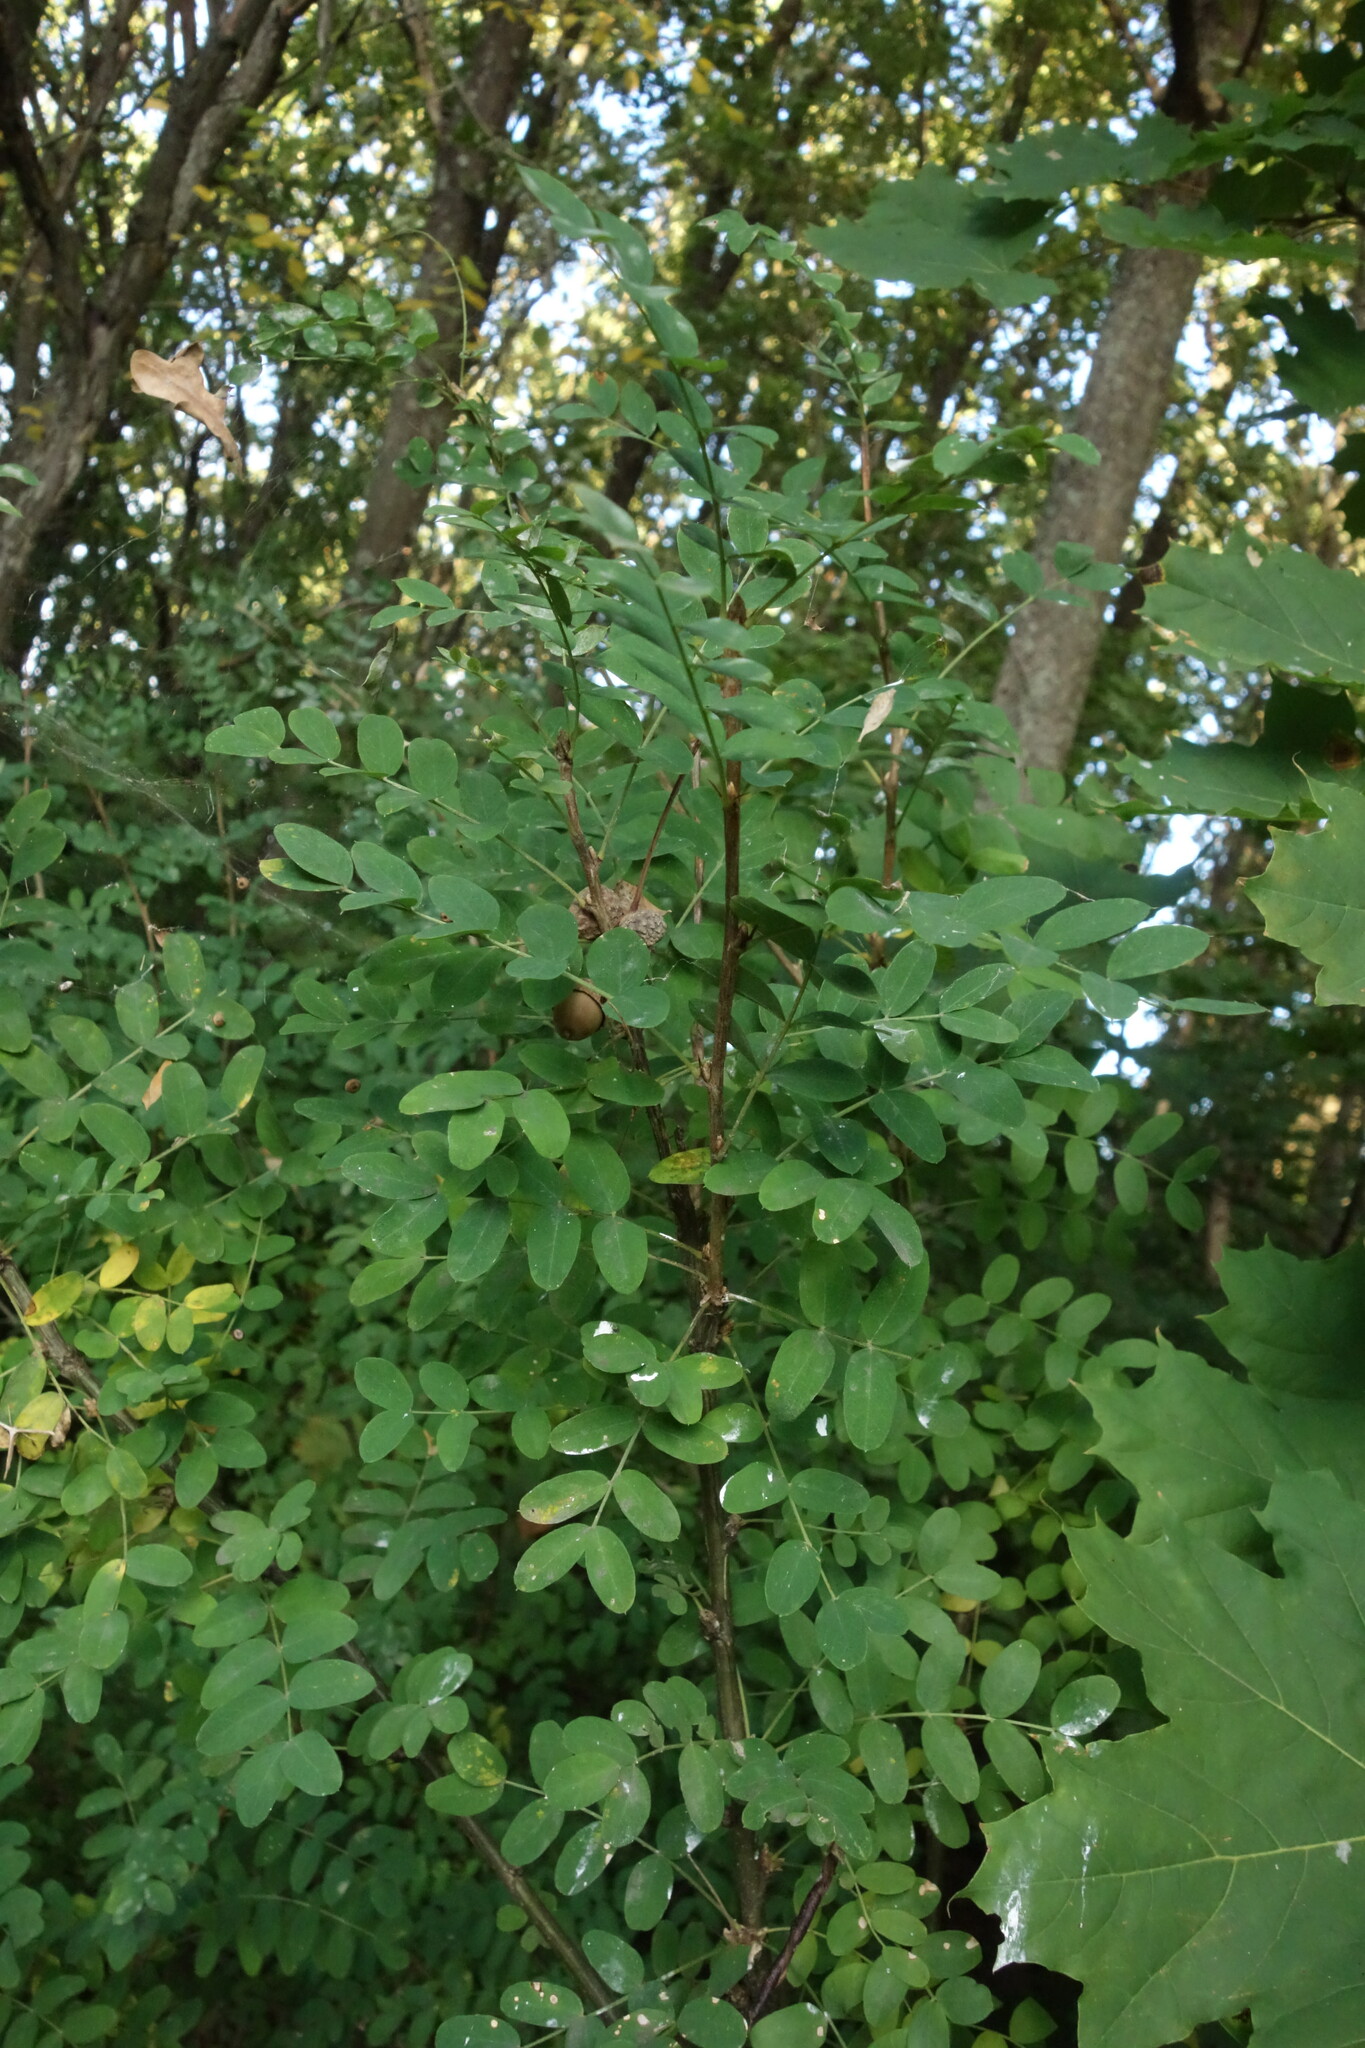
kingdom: Plantae
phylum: Tracheophyta
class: Magnoliopsida
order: Fabales
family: Fabaceae
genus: Caragana
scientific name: Caragana arborescens
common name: Siberian peashrub
